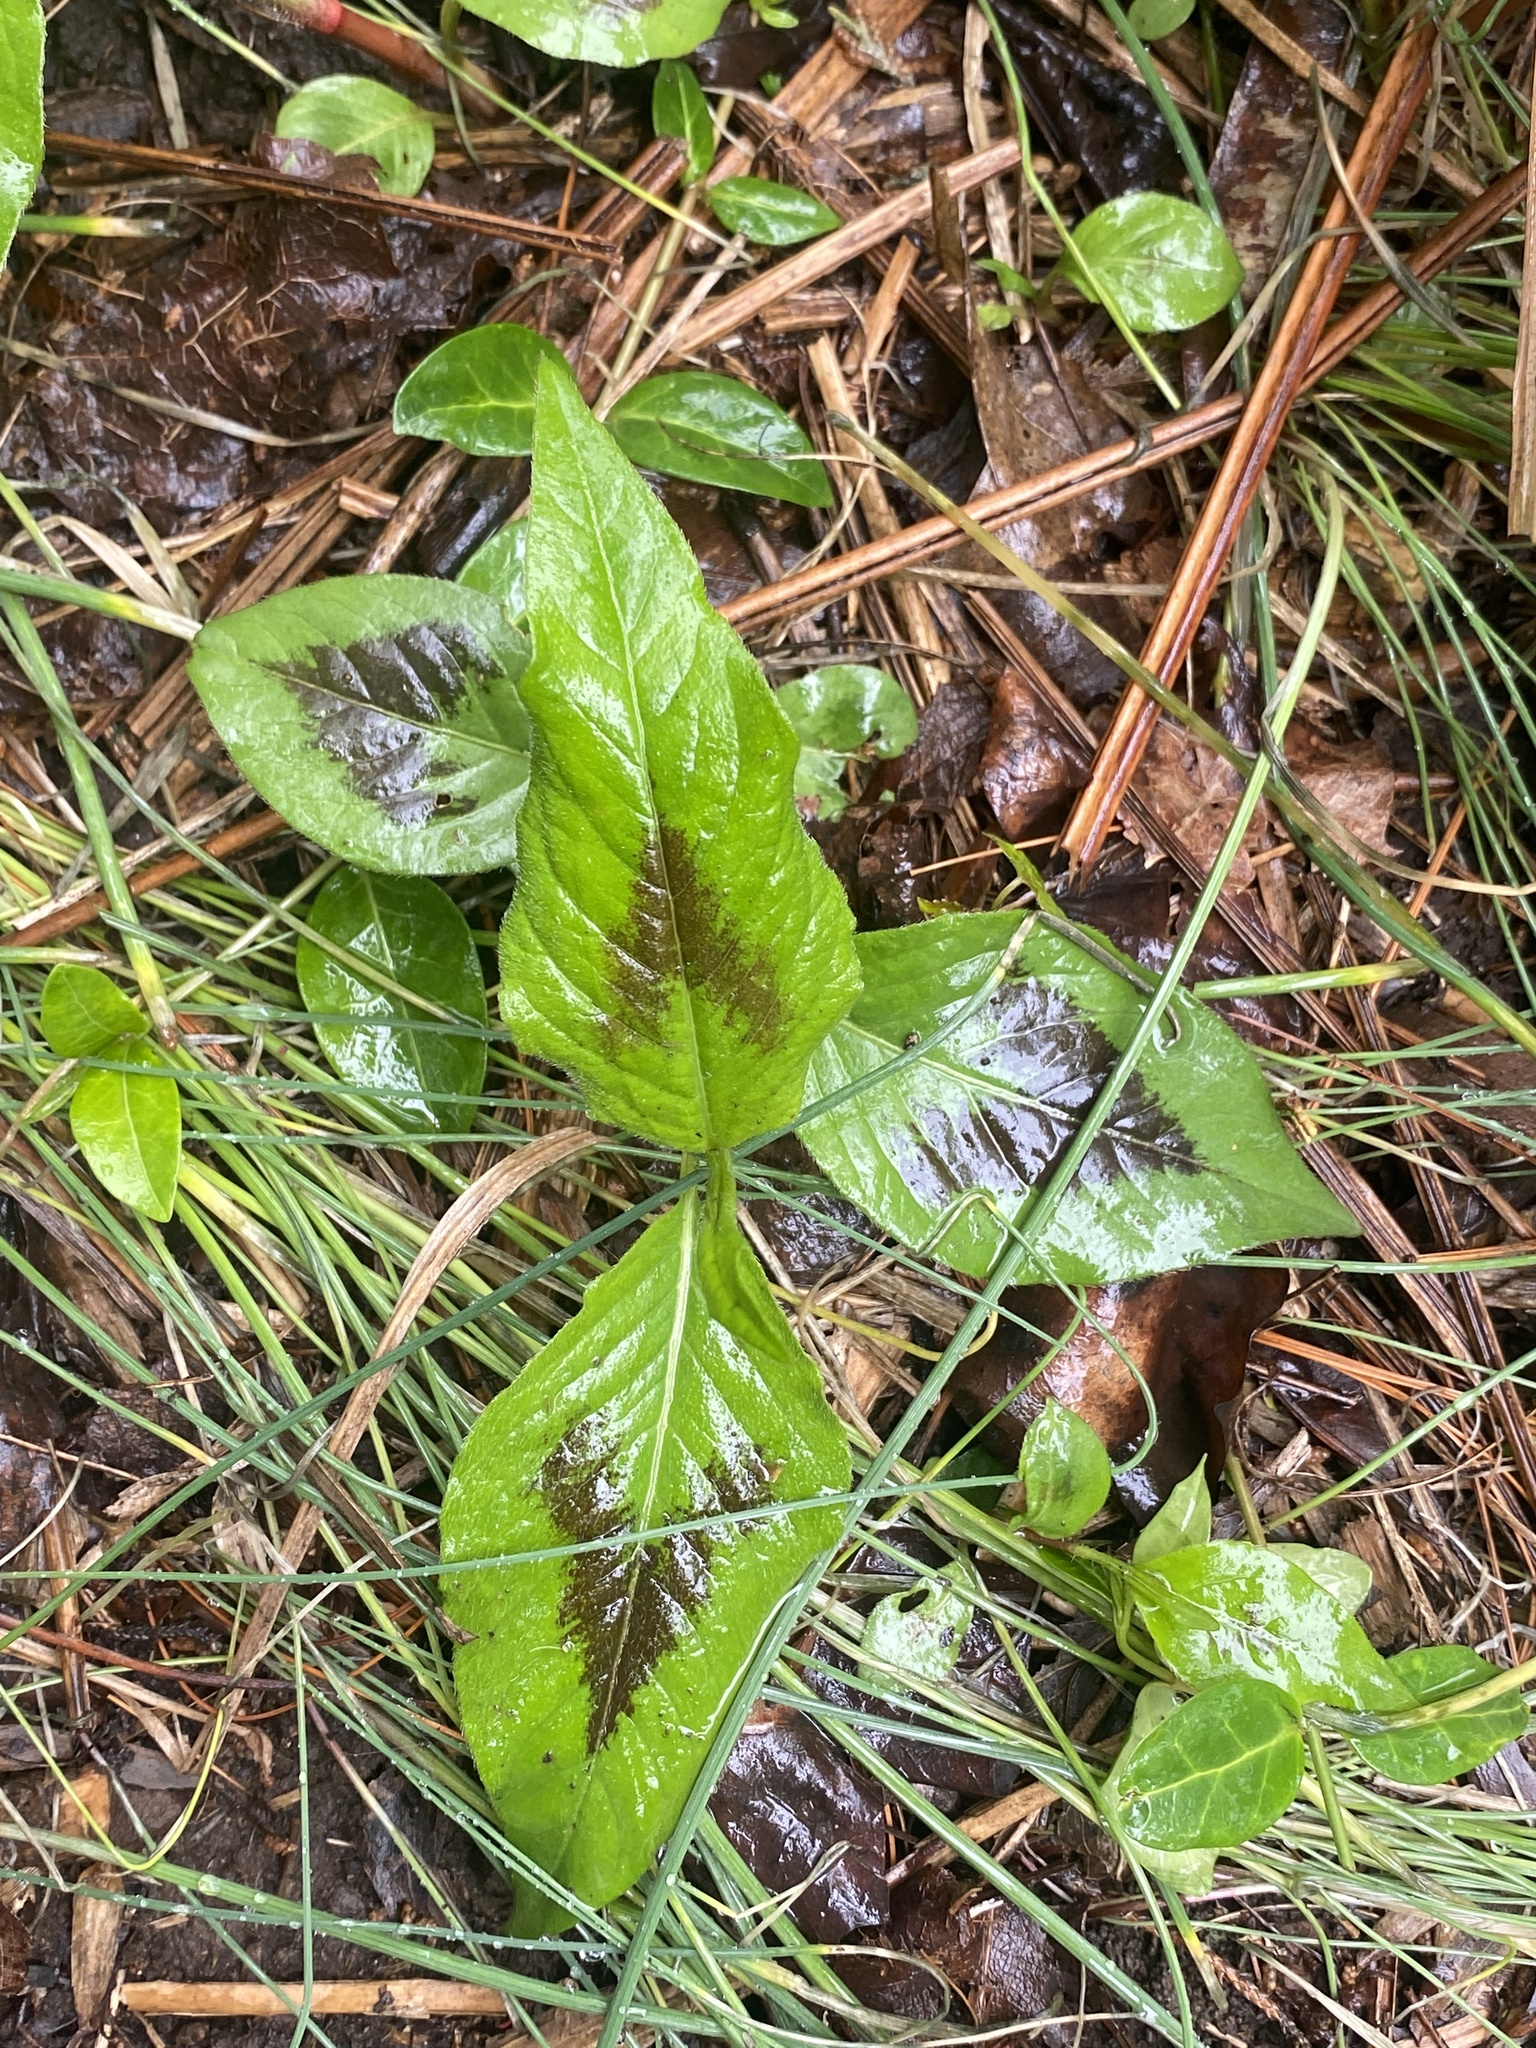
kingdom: Plantae
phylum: Tracheophyta
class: Magnoliopsida
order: Caryophyllales
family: Polygonaceae
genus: Persicaria
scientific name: Persicaria virginiana
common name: Jumpseed
